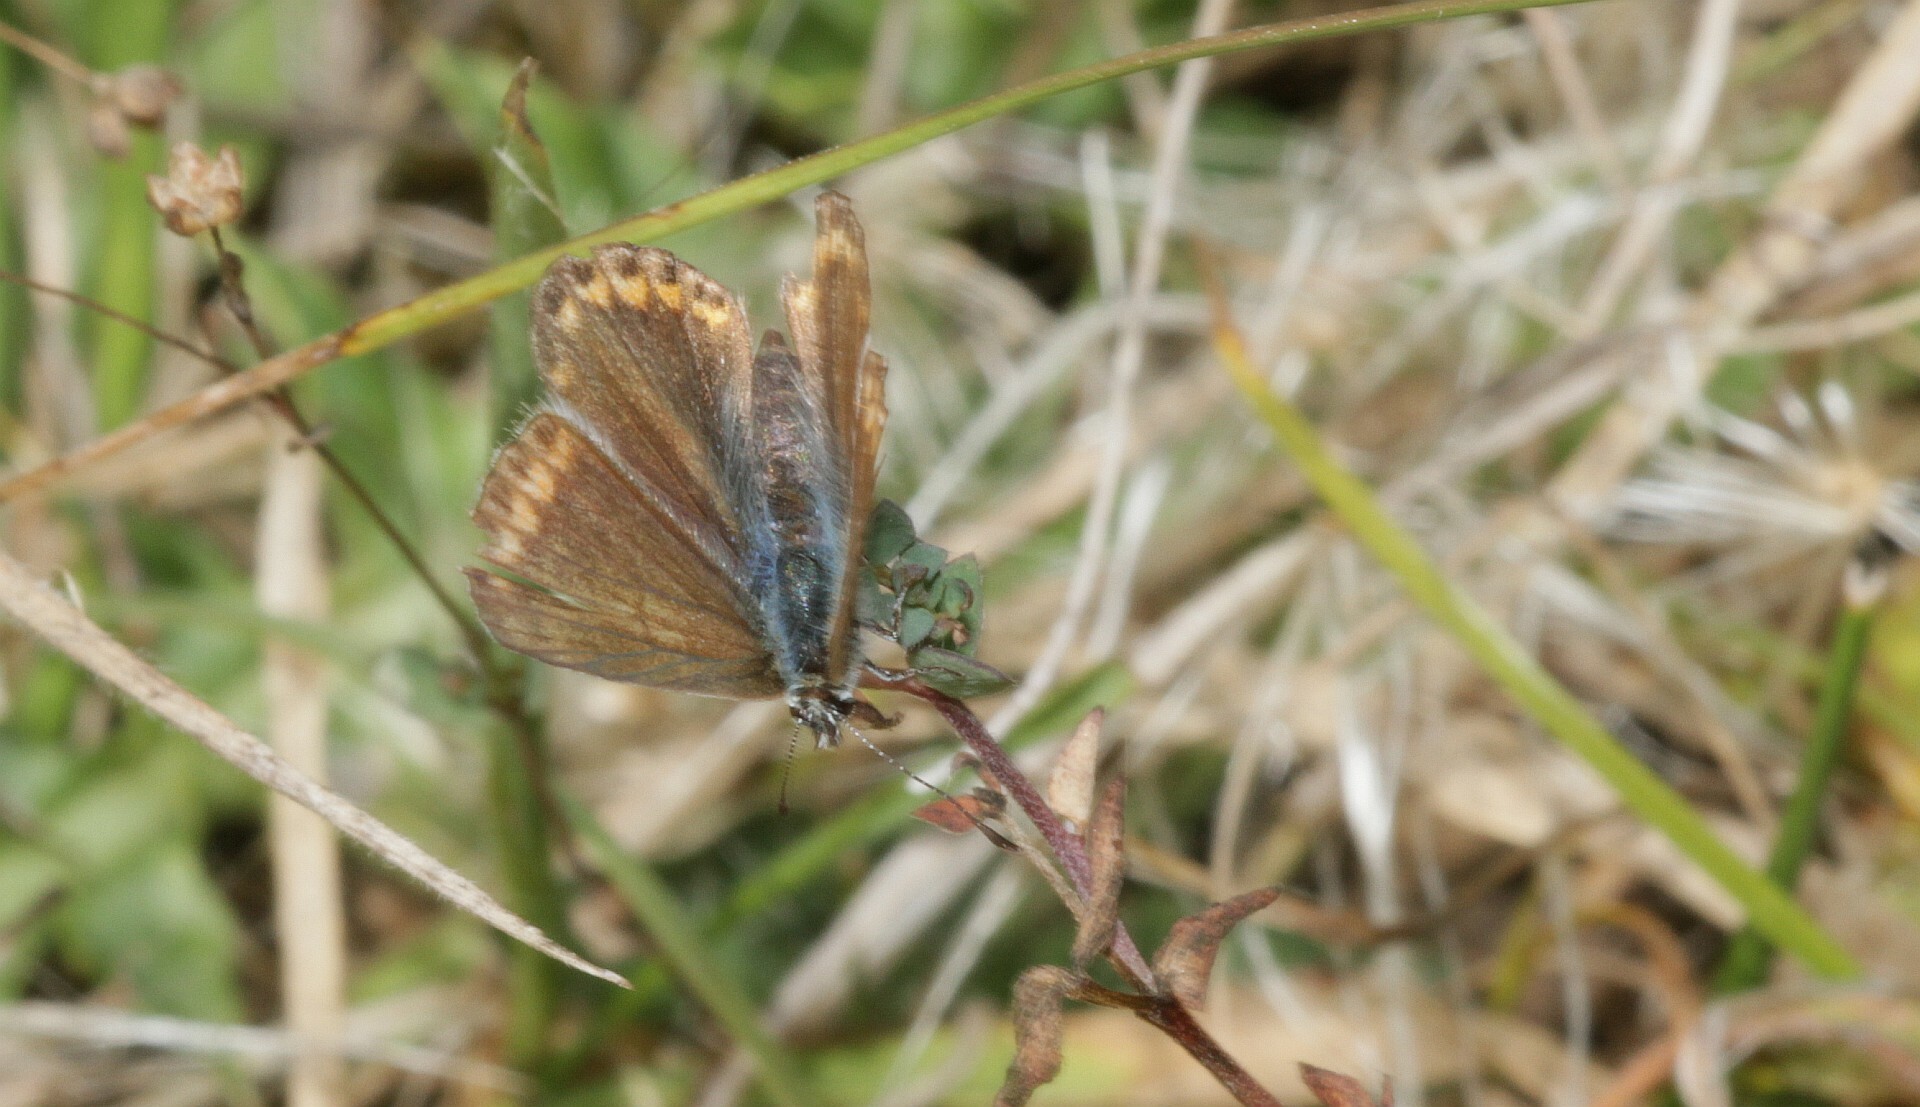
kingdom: Animalia
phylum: Arthropoda
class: Insecta
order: Lepidoptera
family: Lycaenidae
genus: Polyommatus
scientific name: Polyommatus icarus
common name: Common blue
